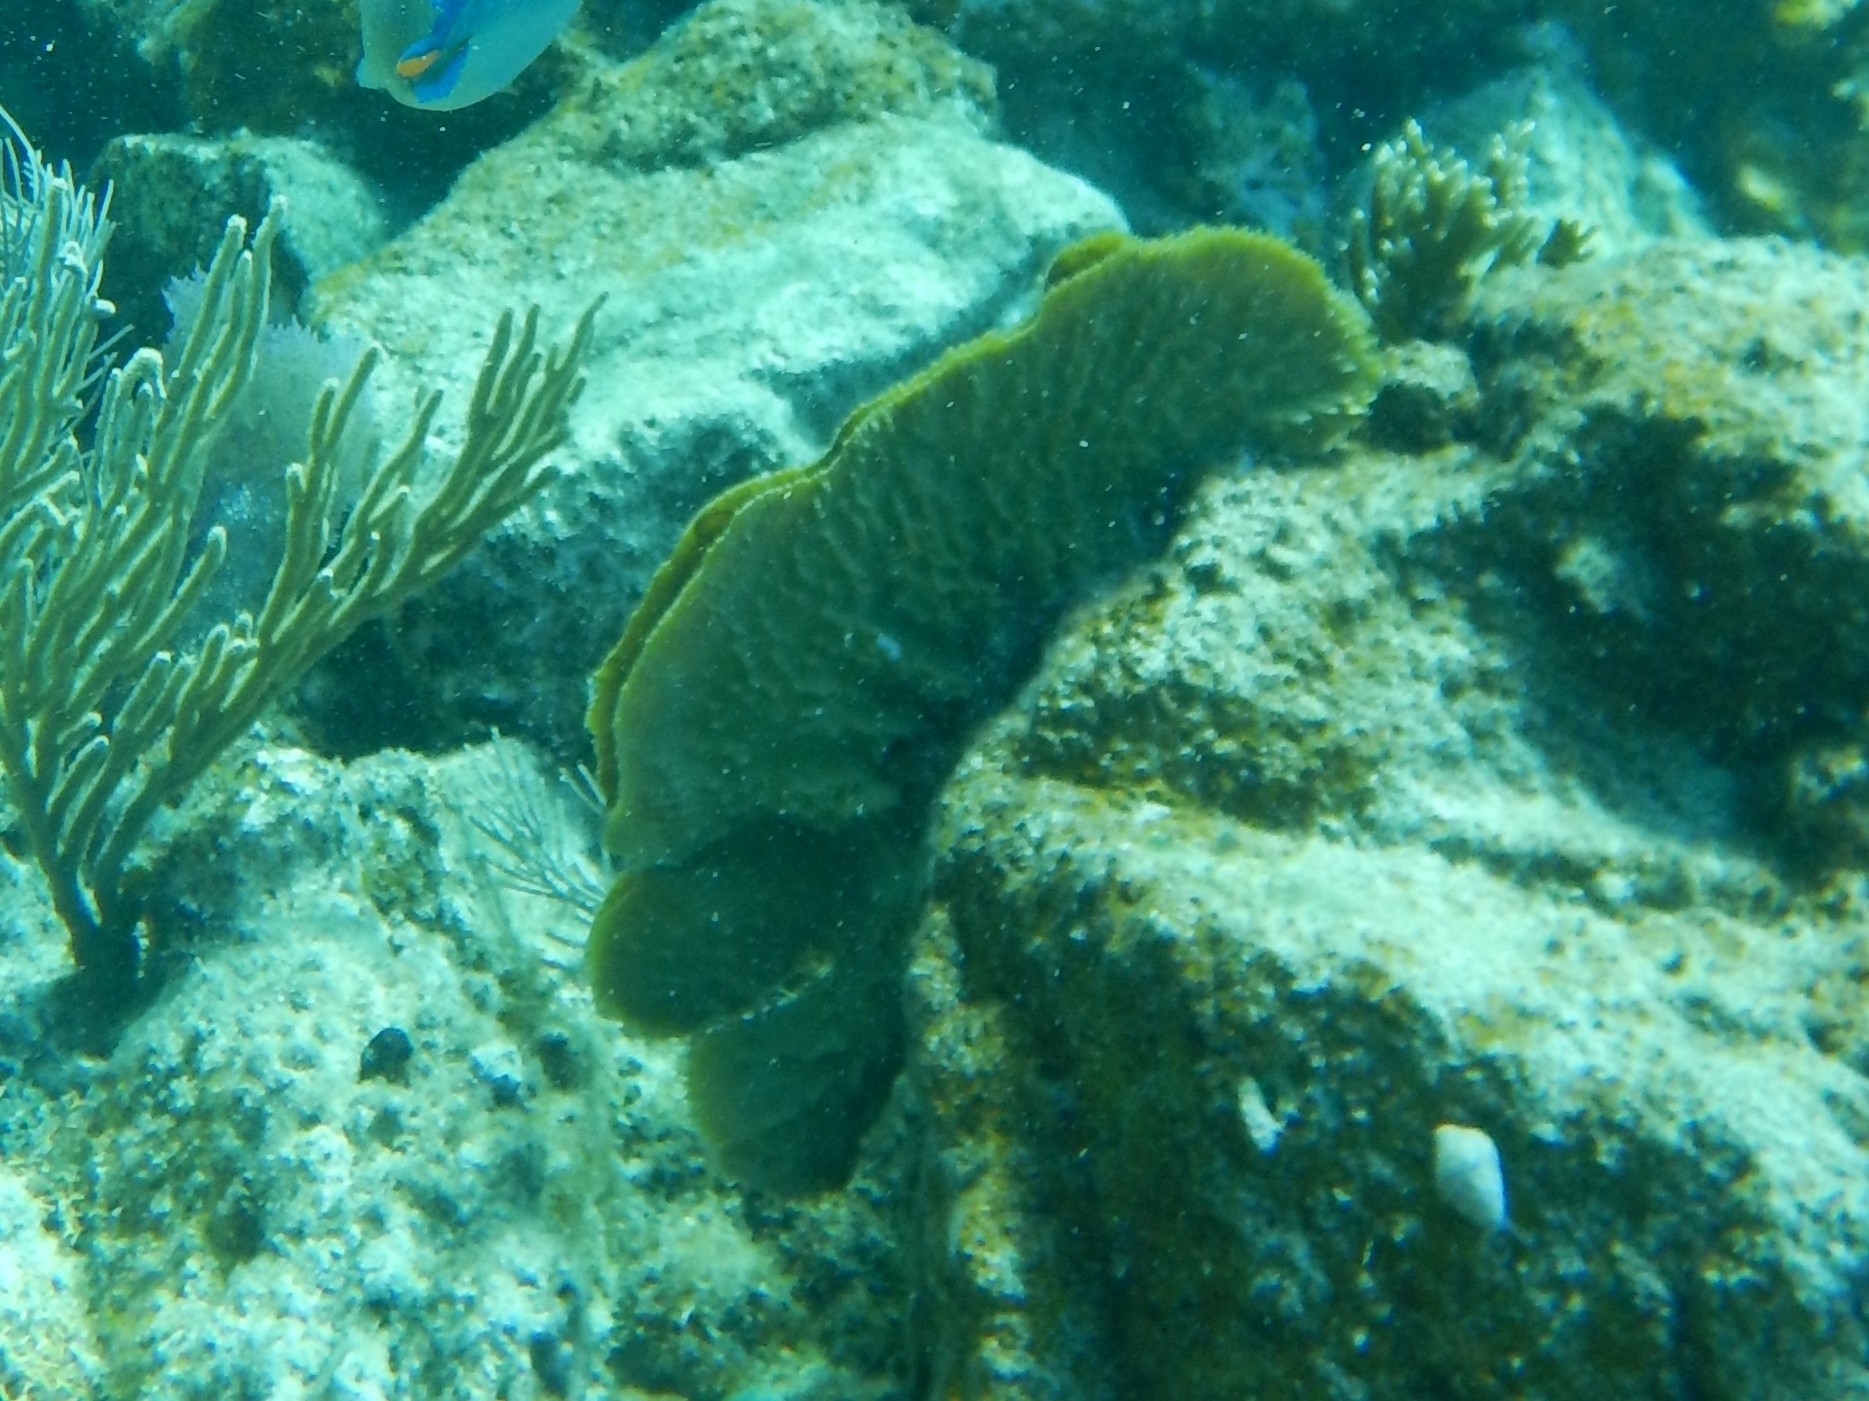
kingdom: Animalia
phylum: Porifera
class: Demospongiae
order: Haplosclerida
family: Callyspongiidae
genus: Callyspongia
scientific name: Callyspongia aculeata
